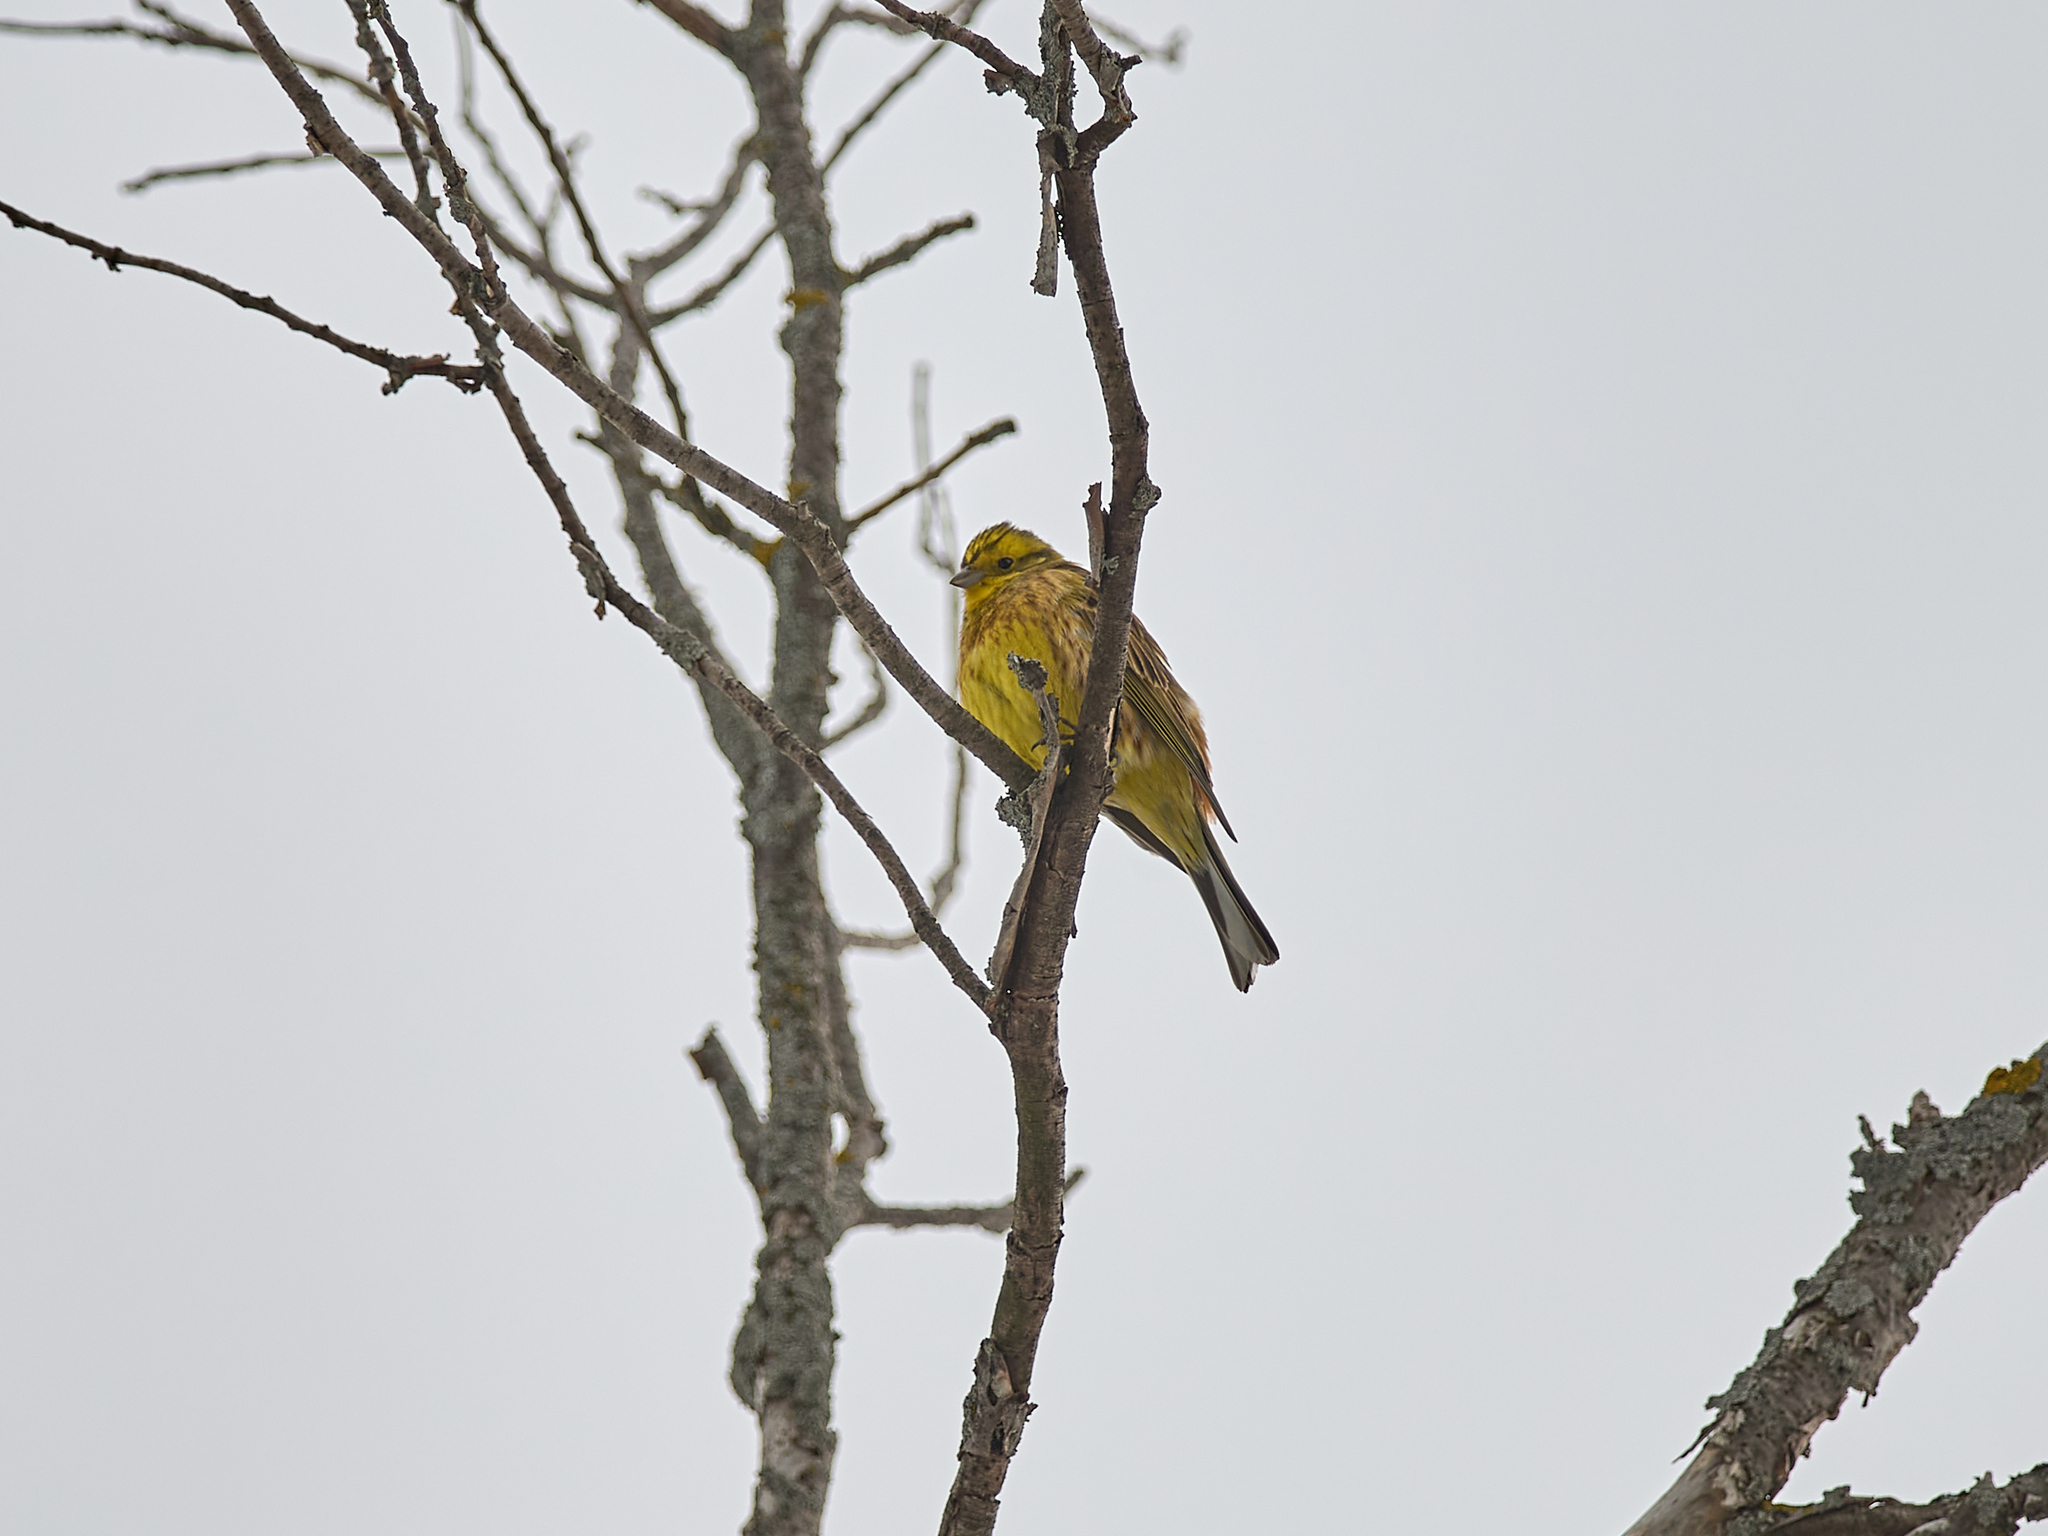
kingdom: Animalia
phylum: Chordata
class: Aves
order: Passeriformes
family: Emberizidae
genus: Emberiza
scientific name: Emberiza citrinella
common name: Yellowhammer
